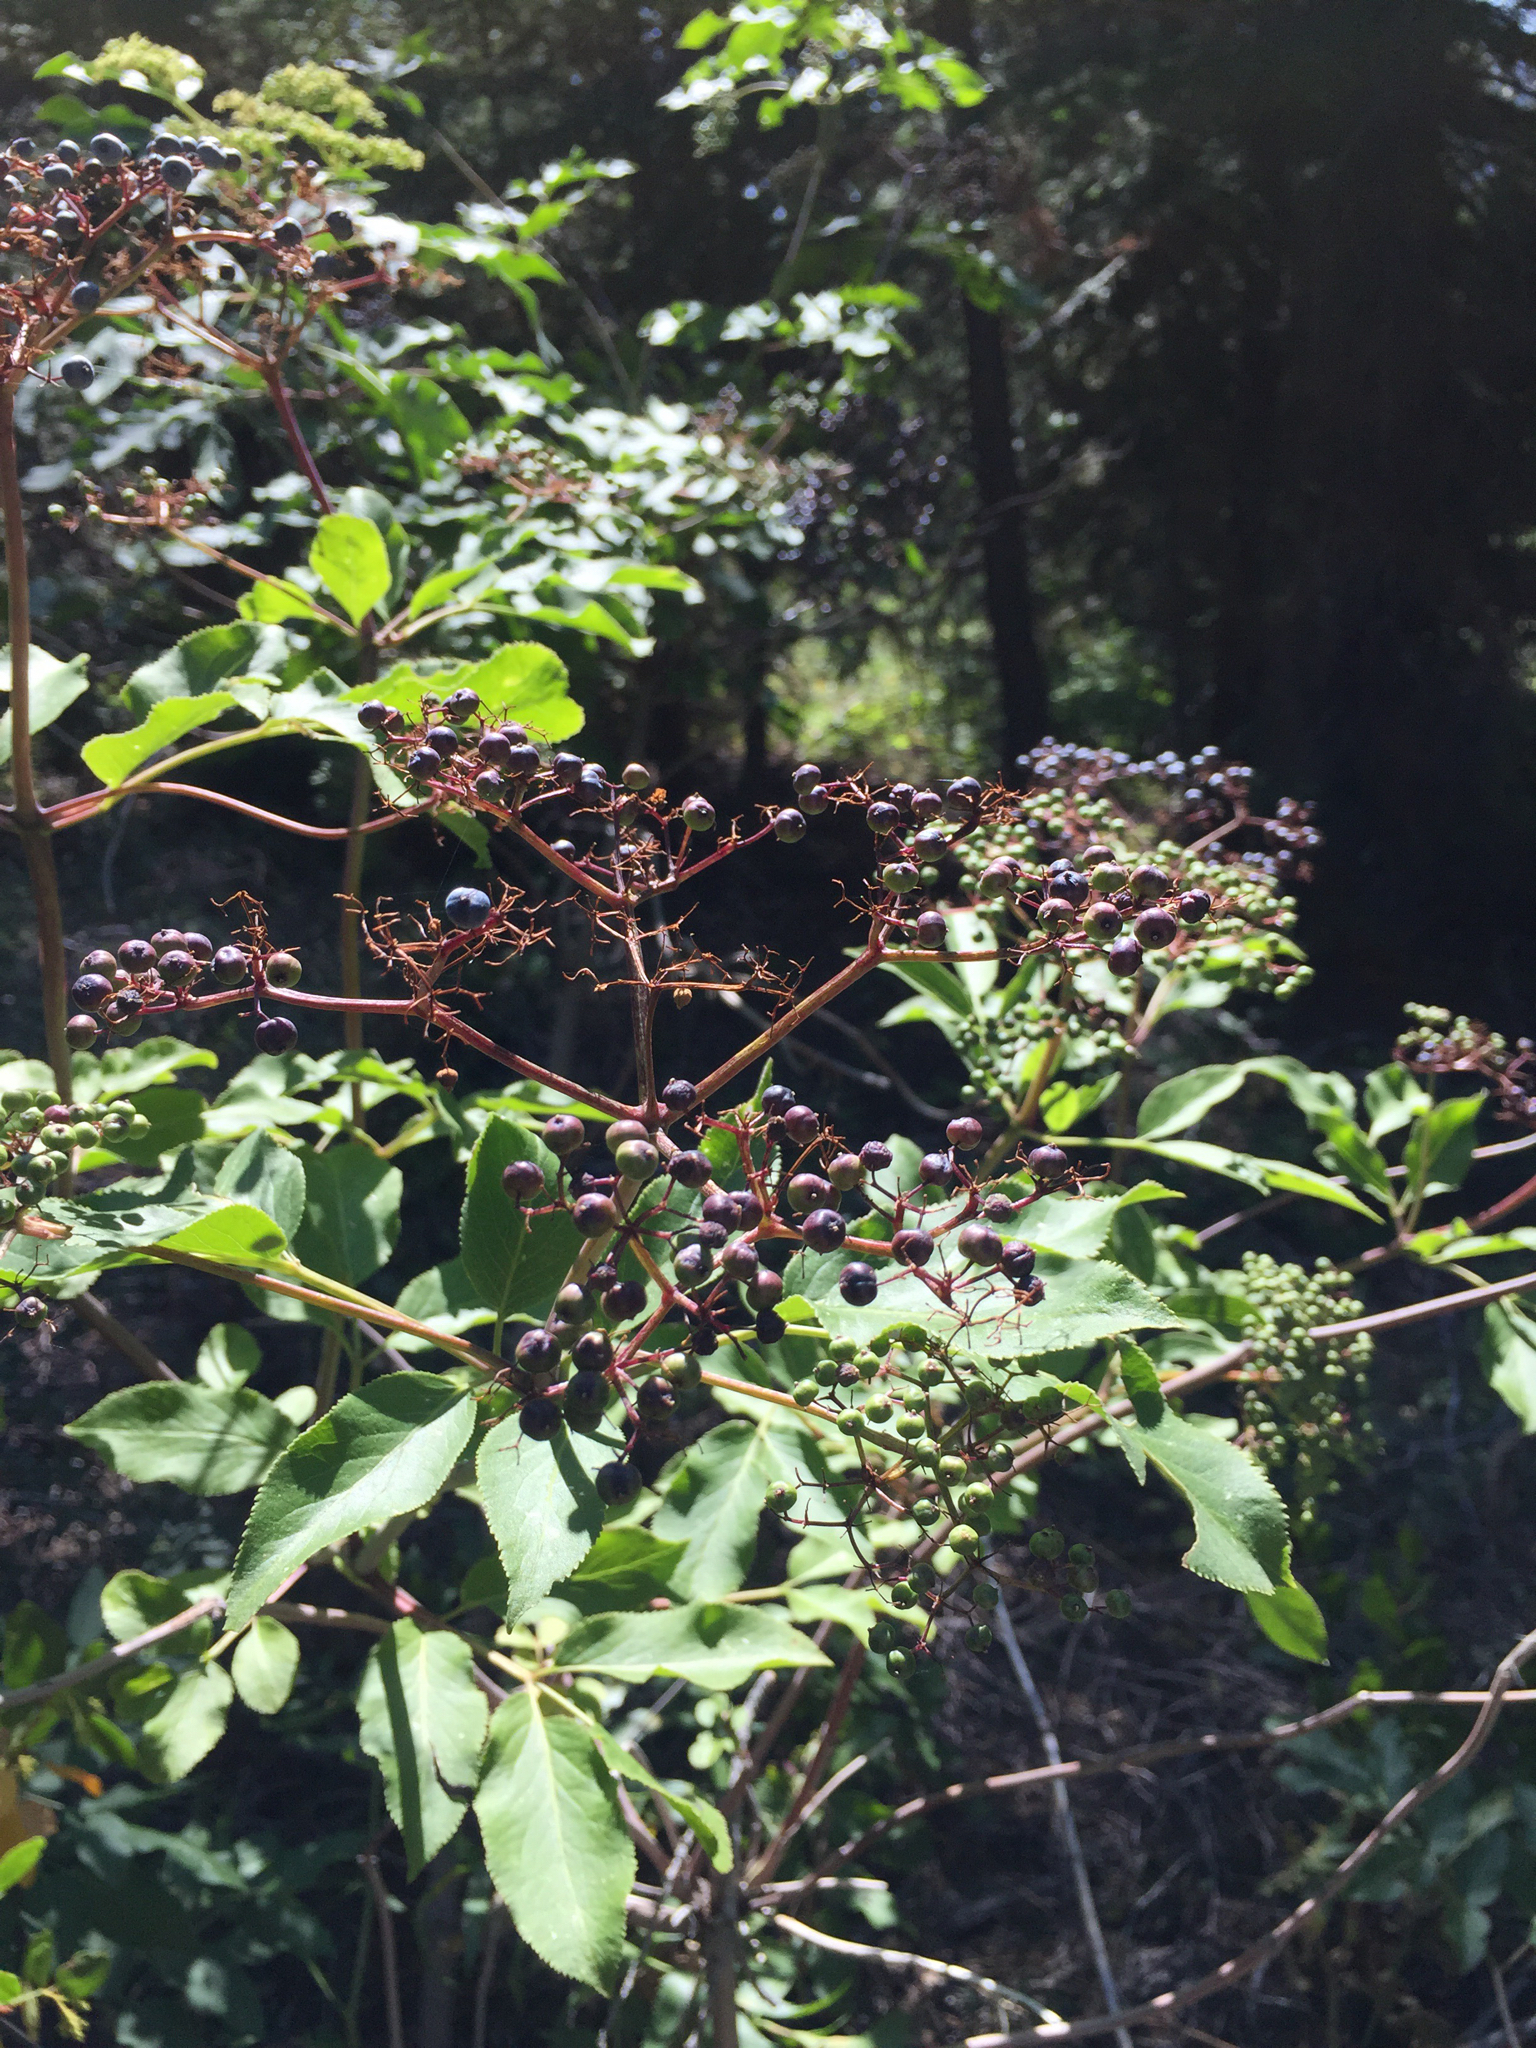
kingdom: Plantae
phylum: Tracheophyta
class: Magnoliopsida
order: Dipsacales
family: Viburnaceae
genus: Sambucus
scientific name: Sambucus cerulea
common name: Blue elder
